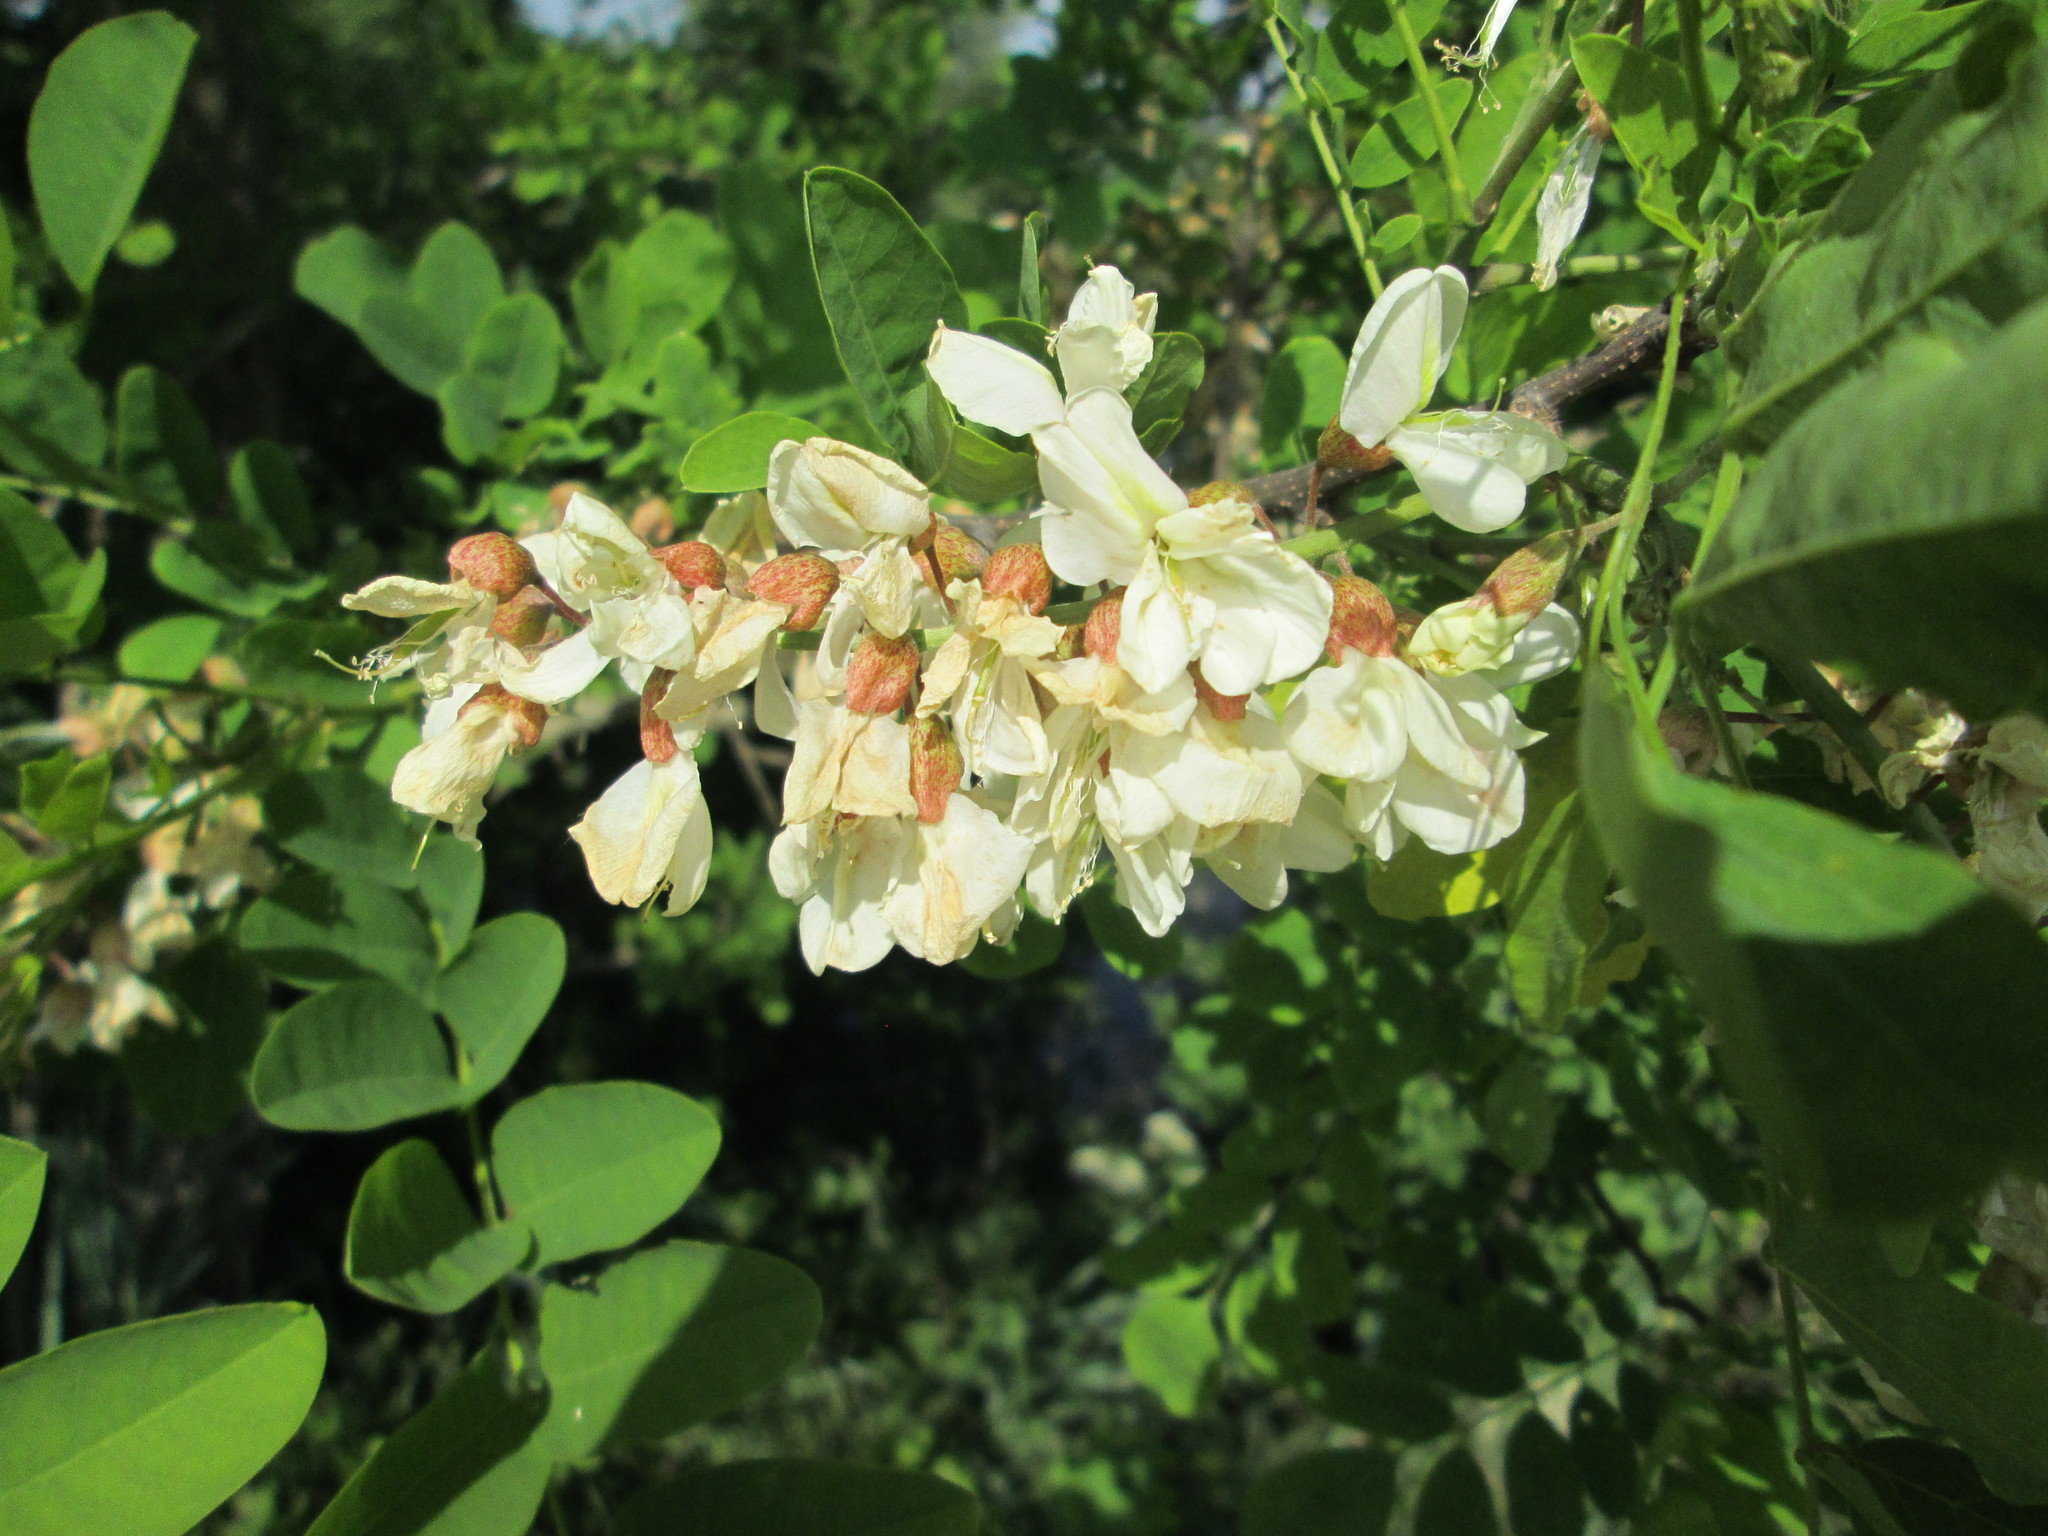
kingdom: Plantae
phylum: Tracheophyta
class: Magnoliopsida
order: Fabales
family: Fabaceae
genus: Robinia
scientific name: Robinia pseudoacacia
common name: Black locust
